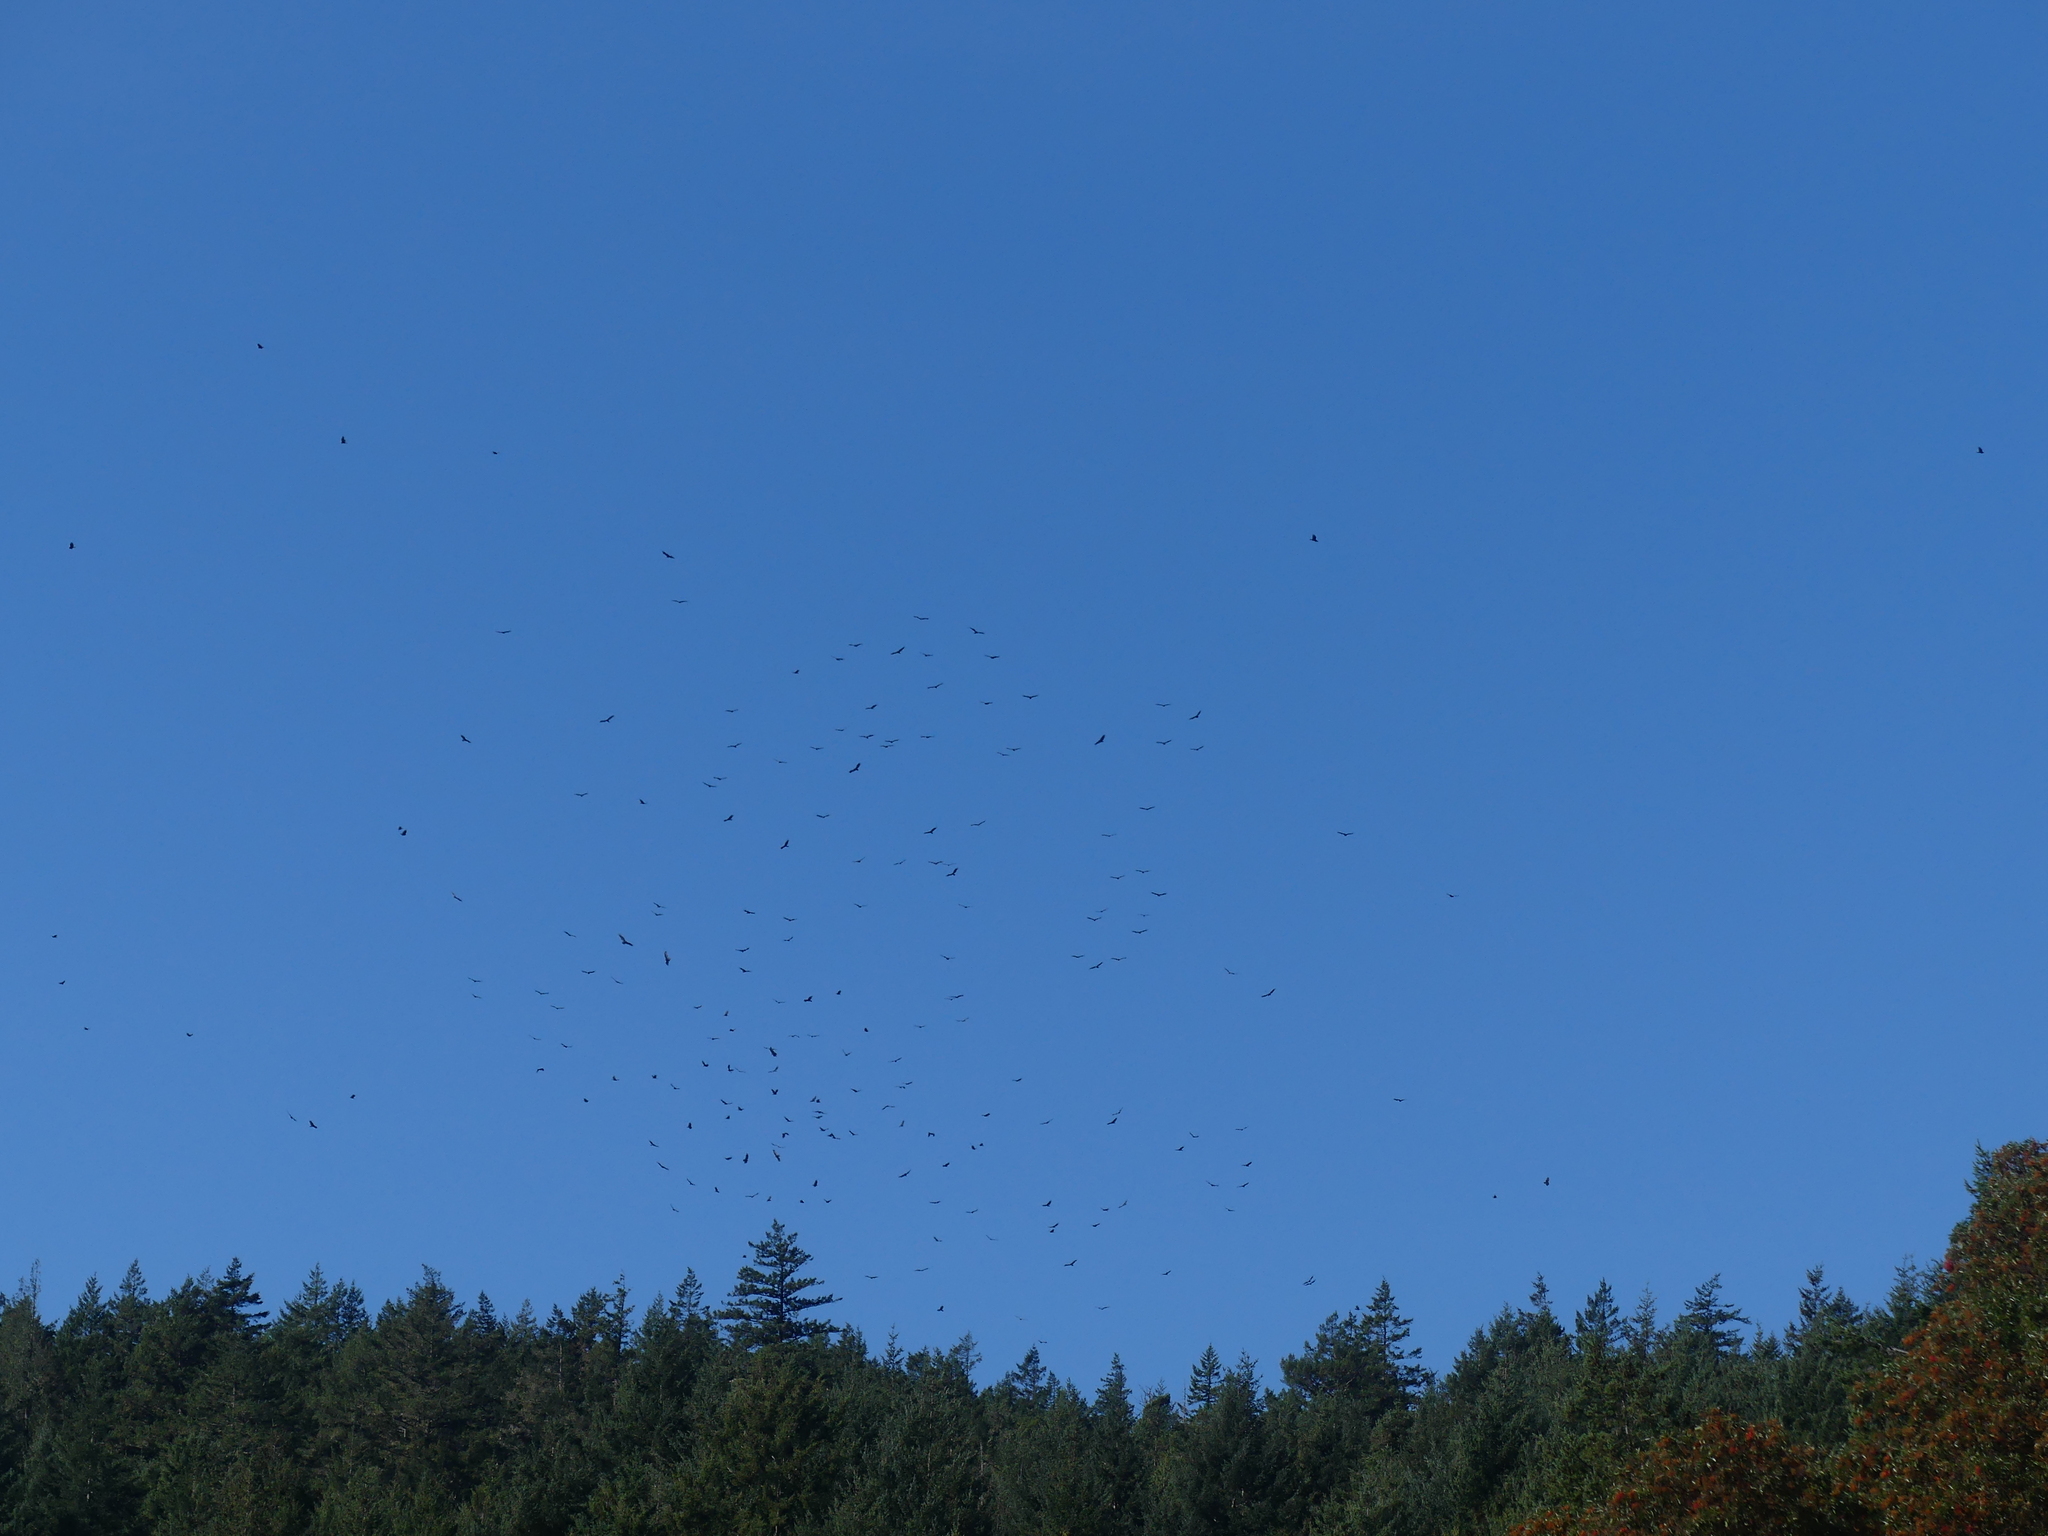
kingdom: Animalia
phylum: Chordata
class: Aves
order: Accipitriformes
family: Cathartidae
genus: Cathartes
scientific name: Cathartes aura
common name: Turkey vulture
